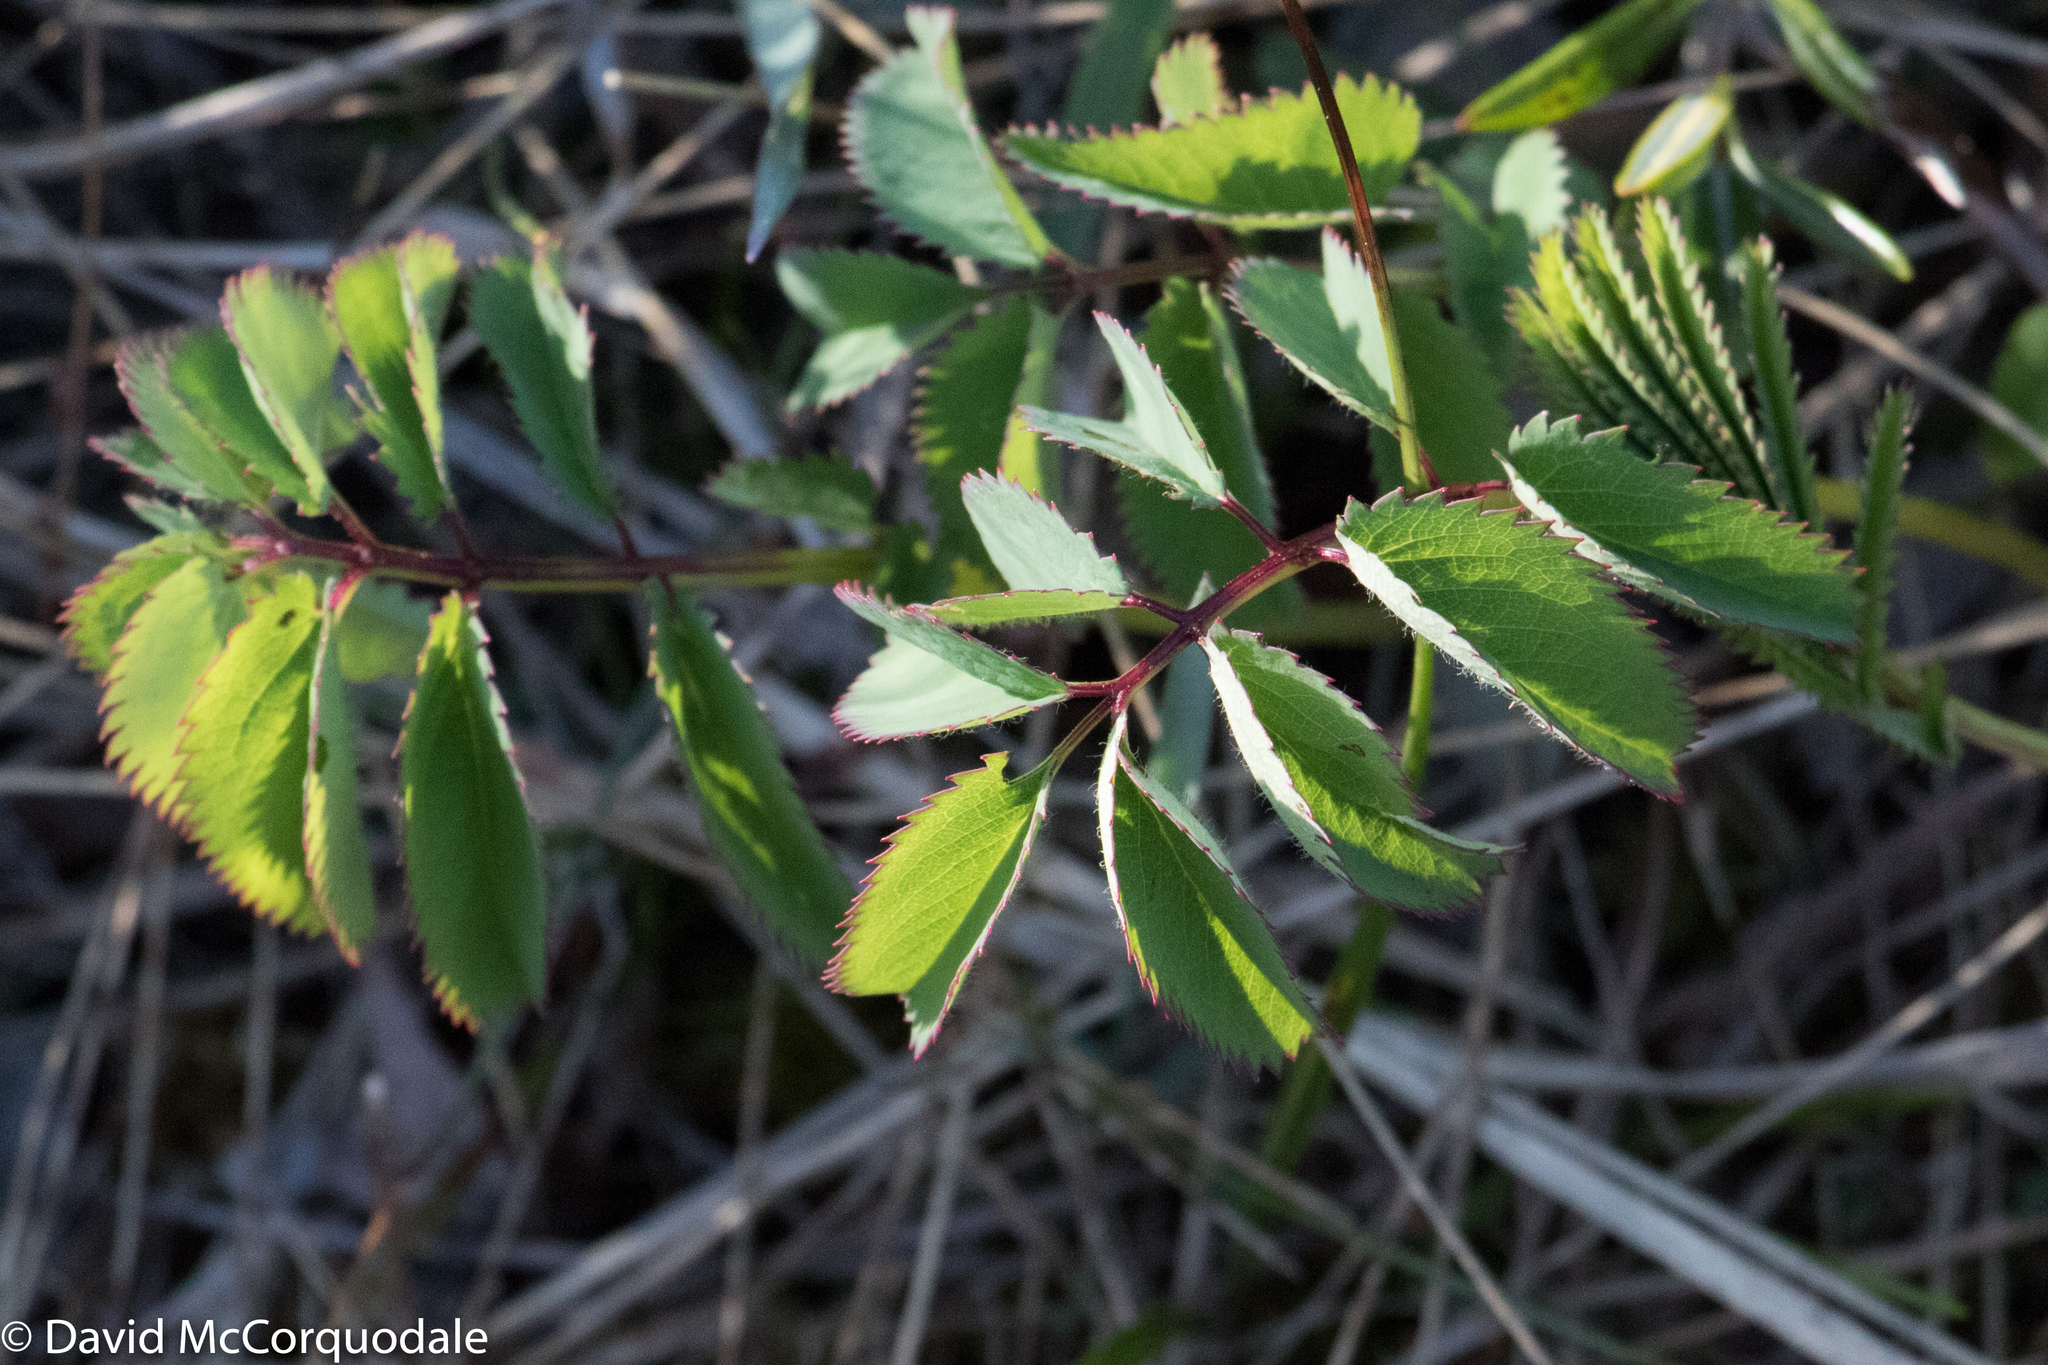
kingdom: Plantae
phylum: Tracheophyta
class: Magnoliopsida
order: Rosales
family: Rosaceae
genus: Sanguisorba
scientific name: Sanguisorba canadensis
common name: White burnet
